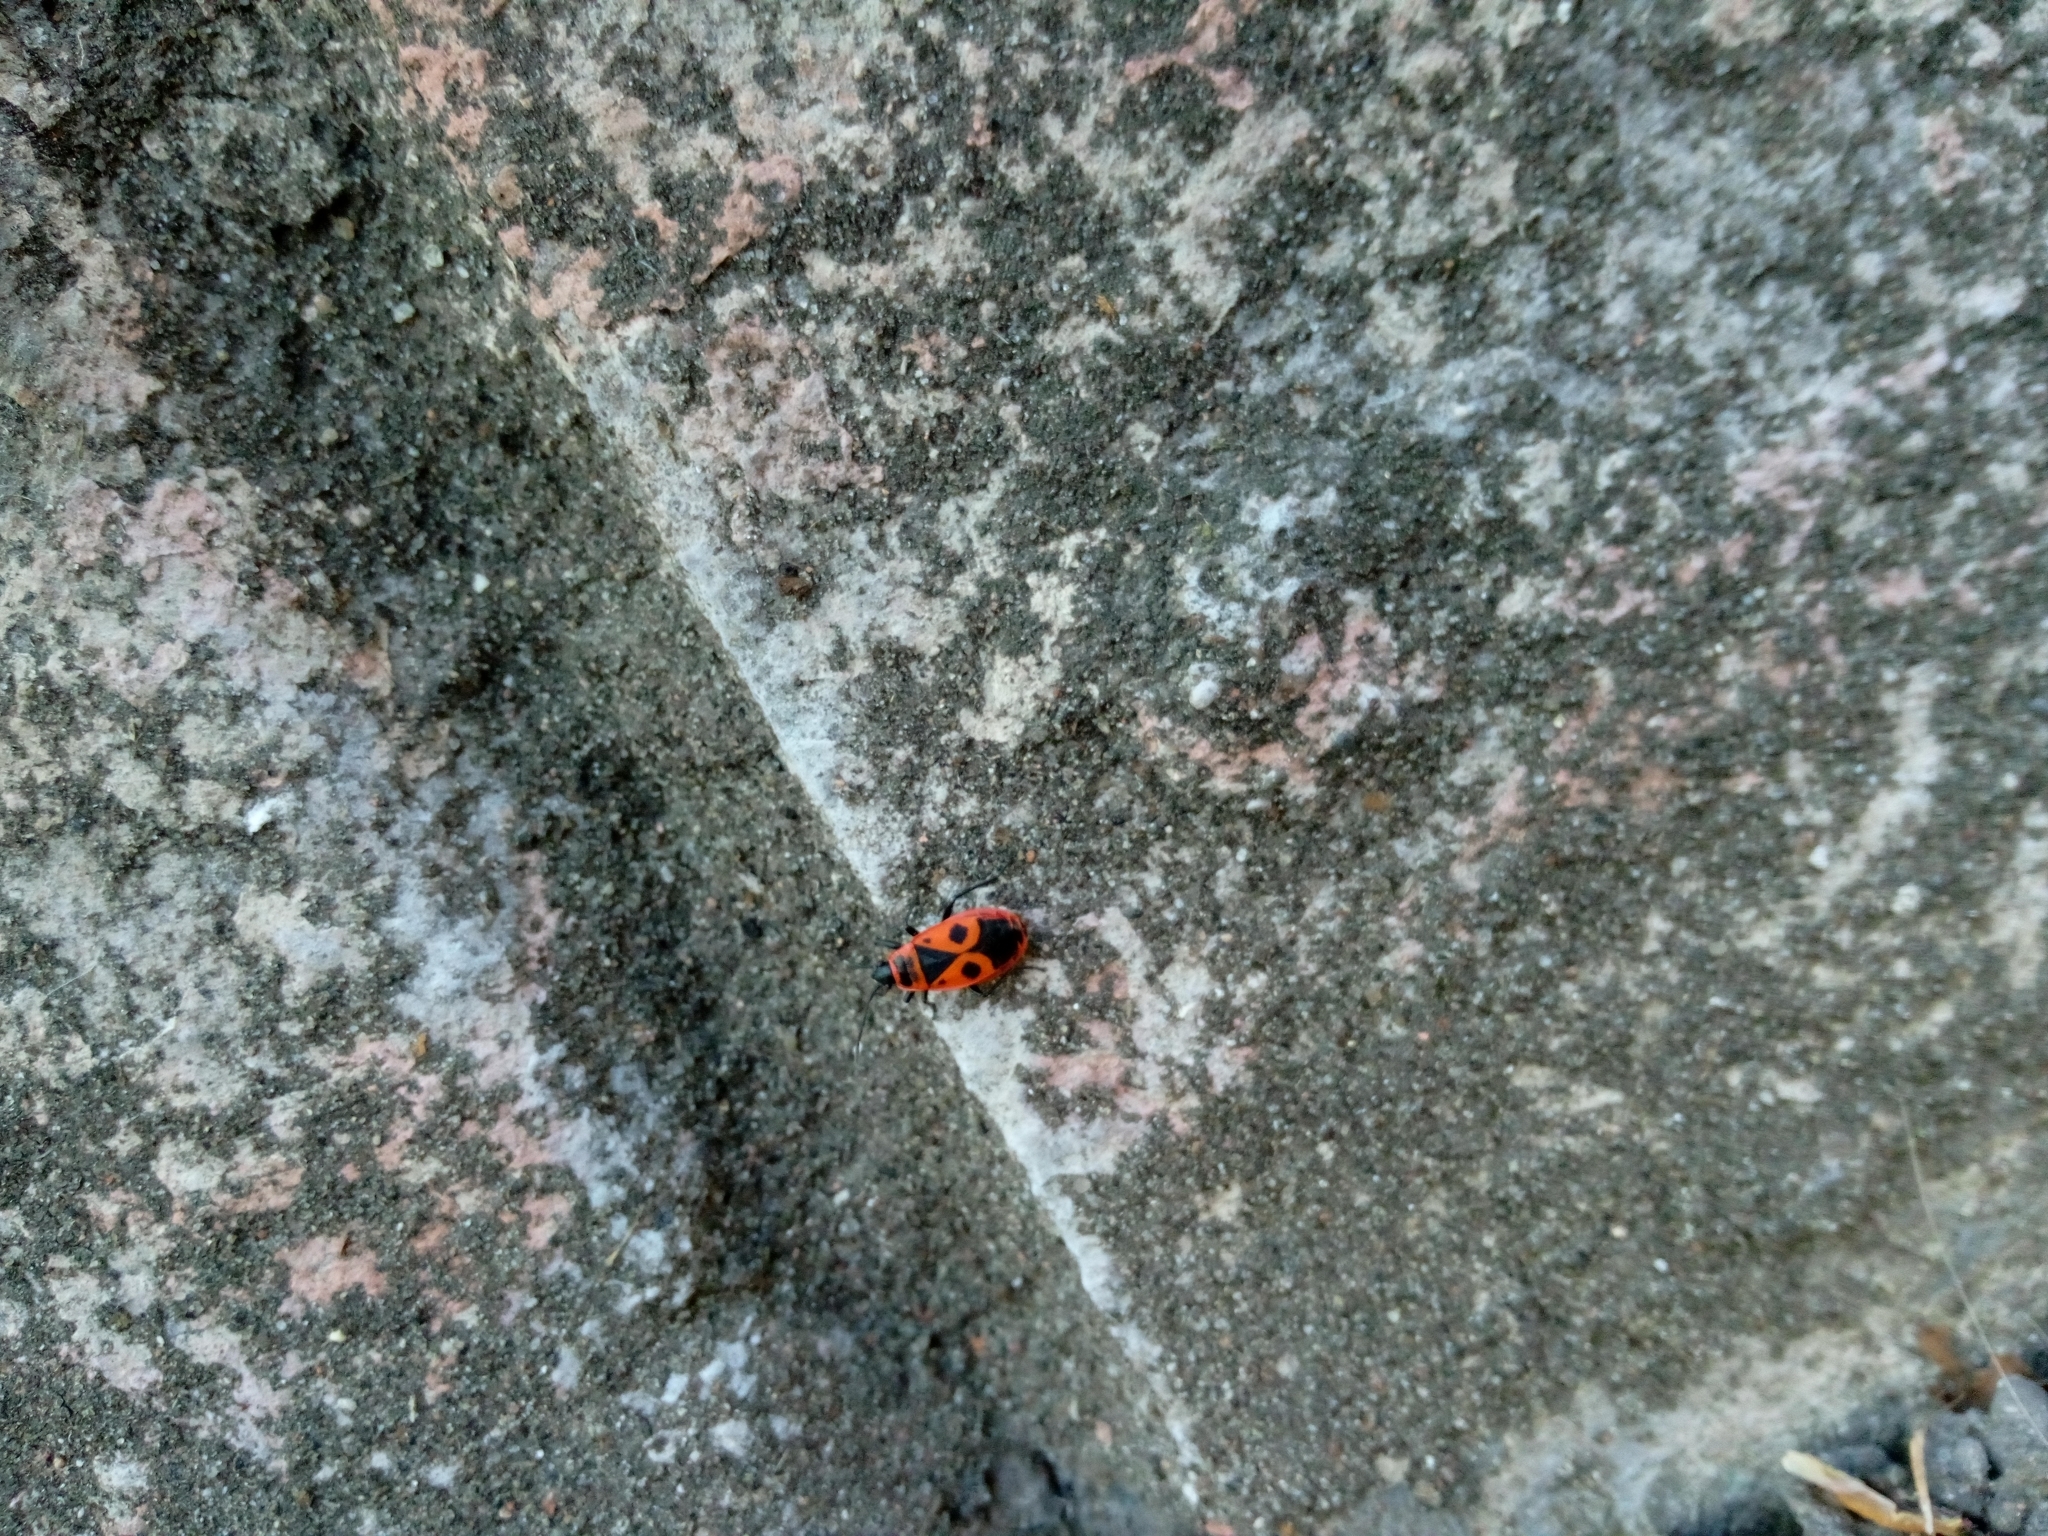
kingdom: Animalia
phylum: Arthropoda
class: Insecta
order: Hemiptera
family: Pyrrhocoridae
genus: Pyrrhocoris
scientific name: Pyrrhocoris apterus
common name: Firebug
